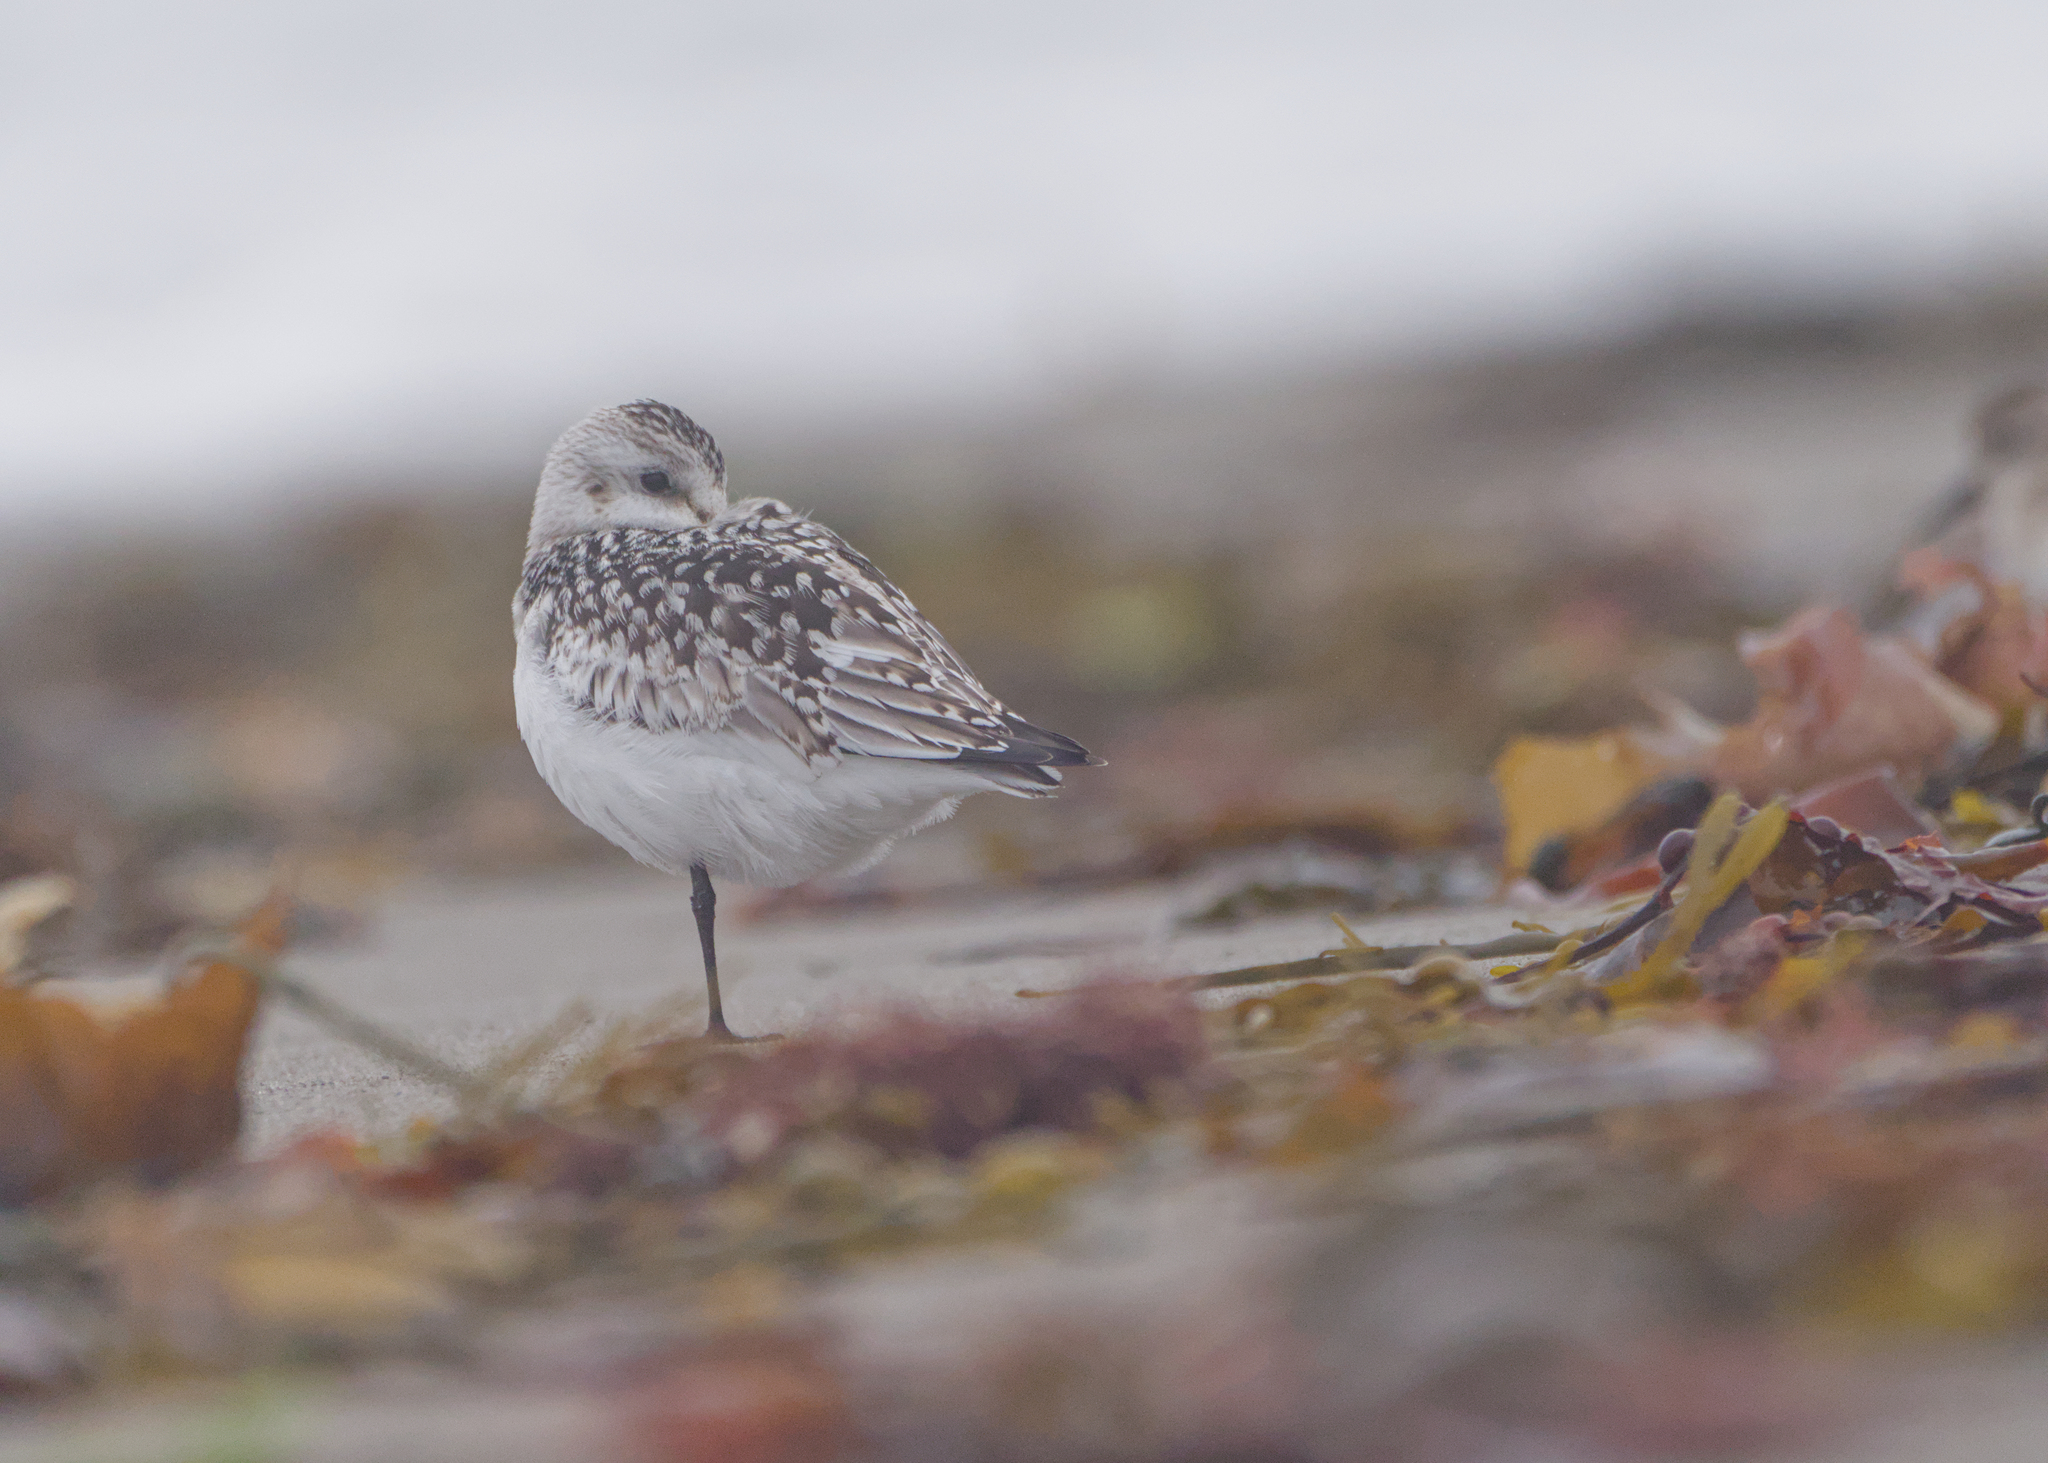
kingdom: Animalia
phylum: Chordata
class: Aves
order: Charadriiformes
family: Scolopacidae
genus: Calidris
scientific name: Calidris alba
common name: Sanderling
